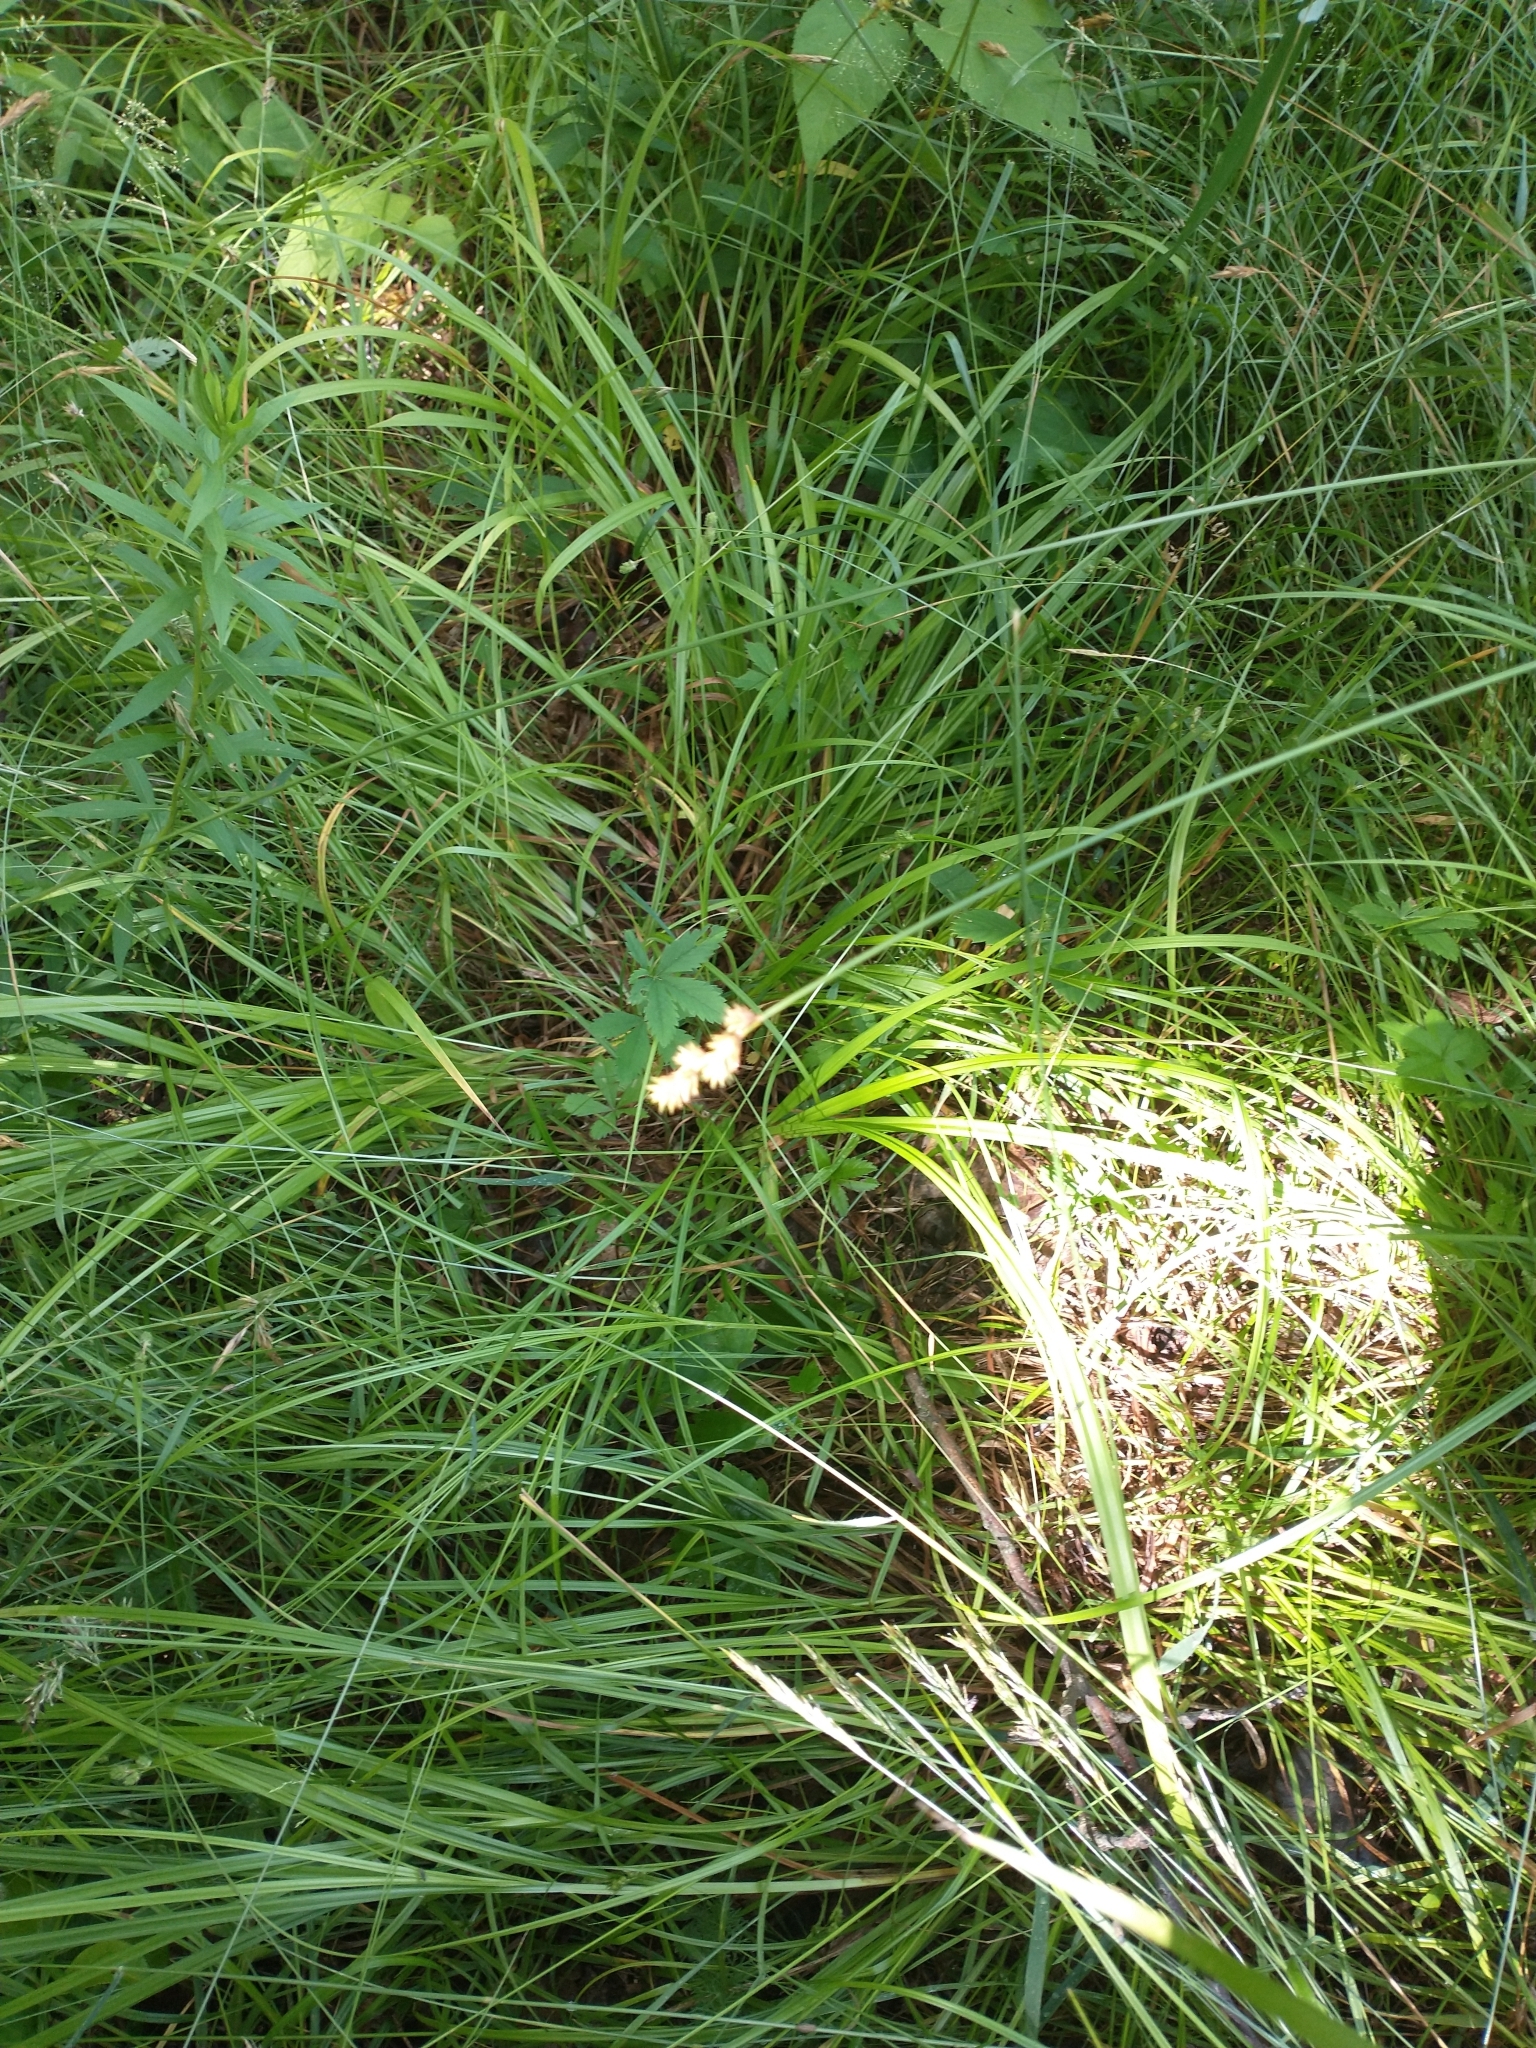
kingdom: Plantae
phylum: Tracheophyta
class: Liliopsida
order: Poales
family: Cyperaceae
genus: Carex
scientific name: Carex projecta
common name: Loose-headed oval sedge
